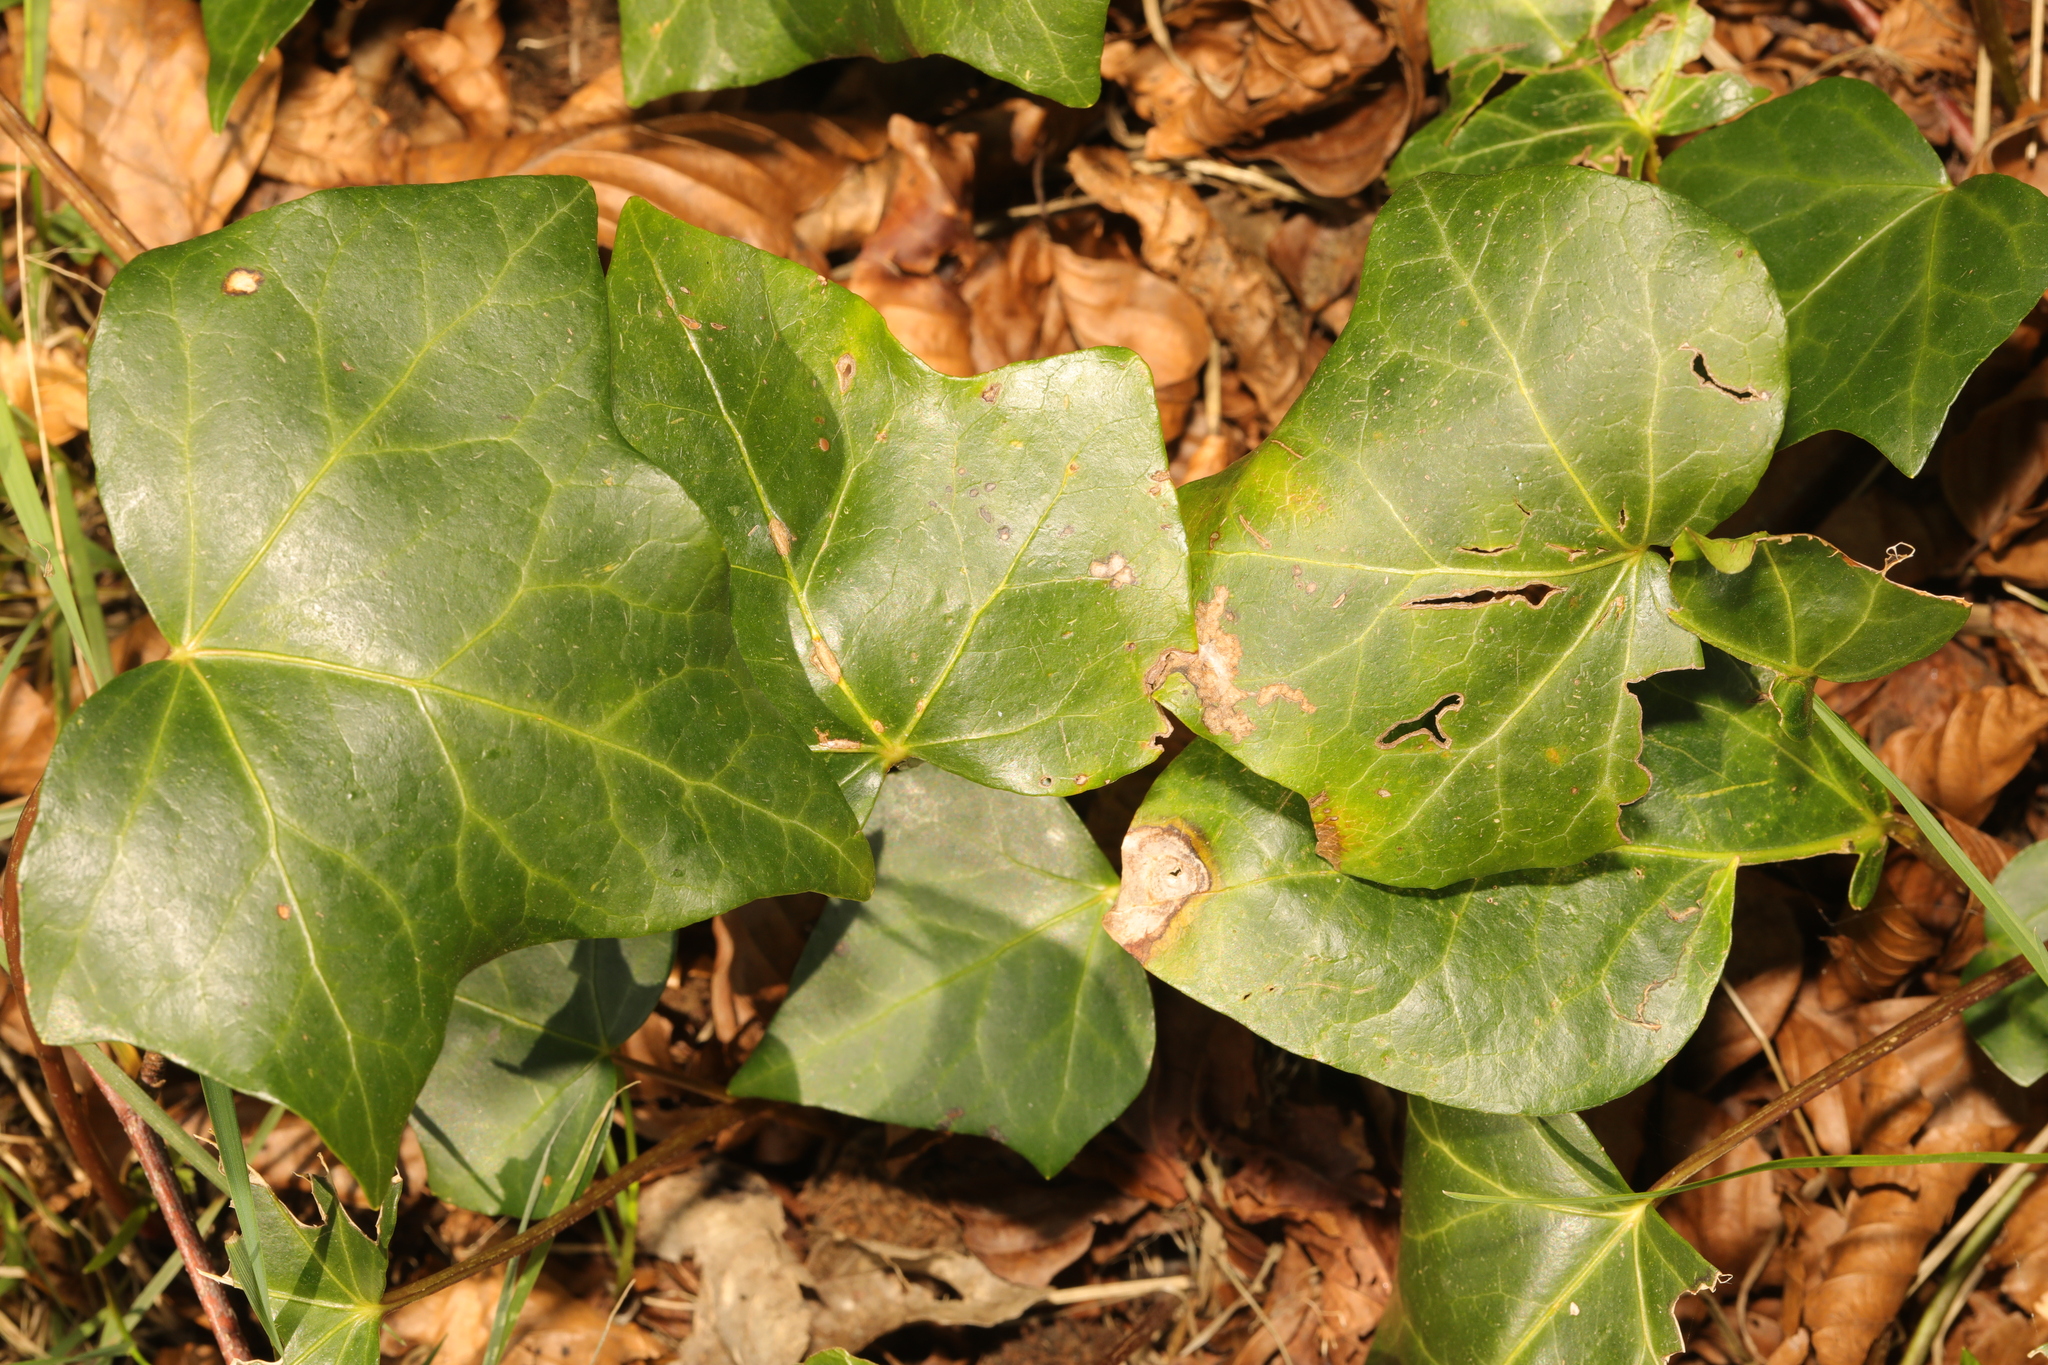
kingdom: Plantae
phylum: Tracheophyta
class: Magnoliopsida
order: Apiales
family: Araliaceae
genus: Hedera
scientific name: Hedera helix
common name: Ivy
